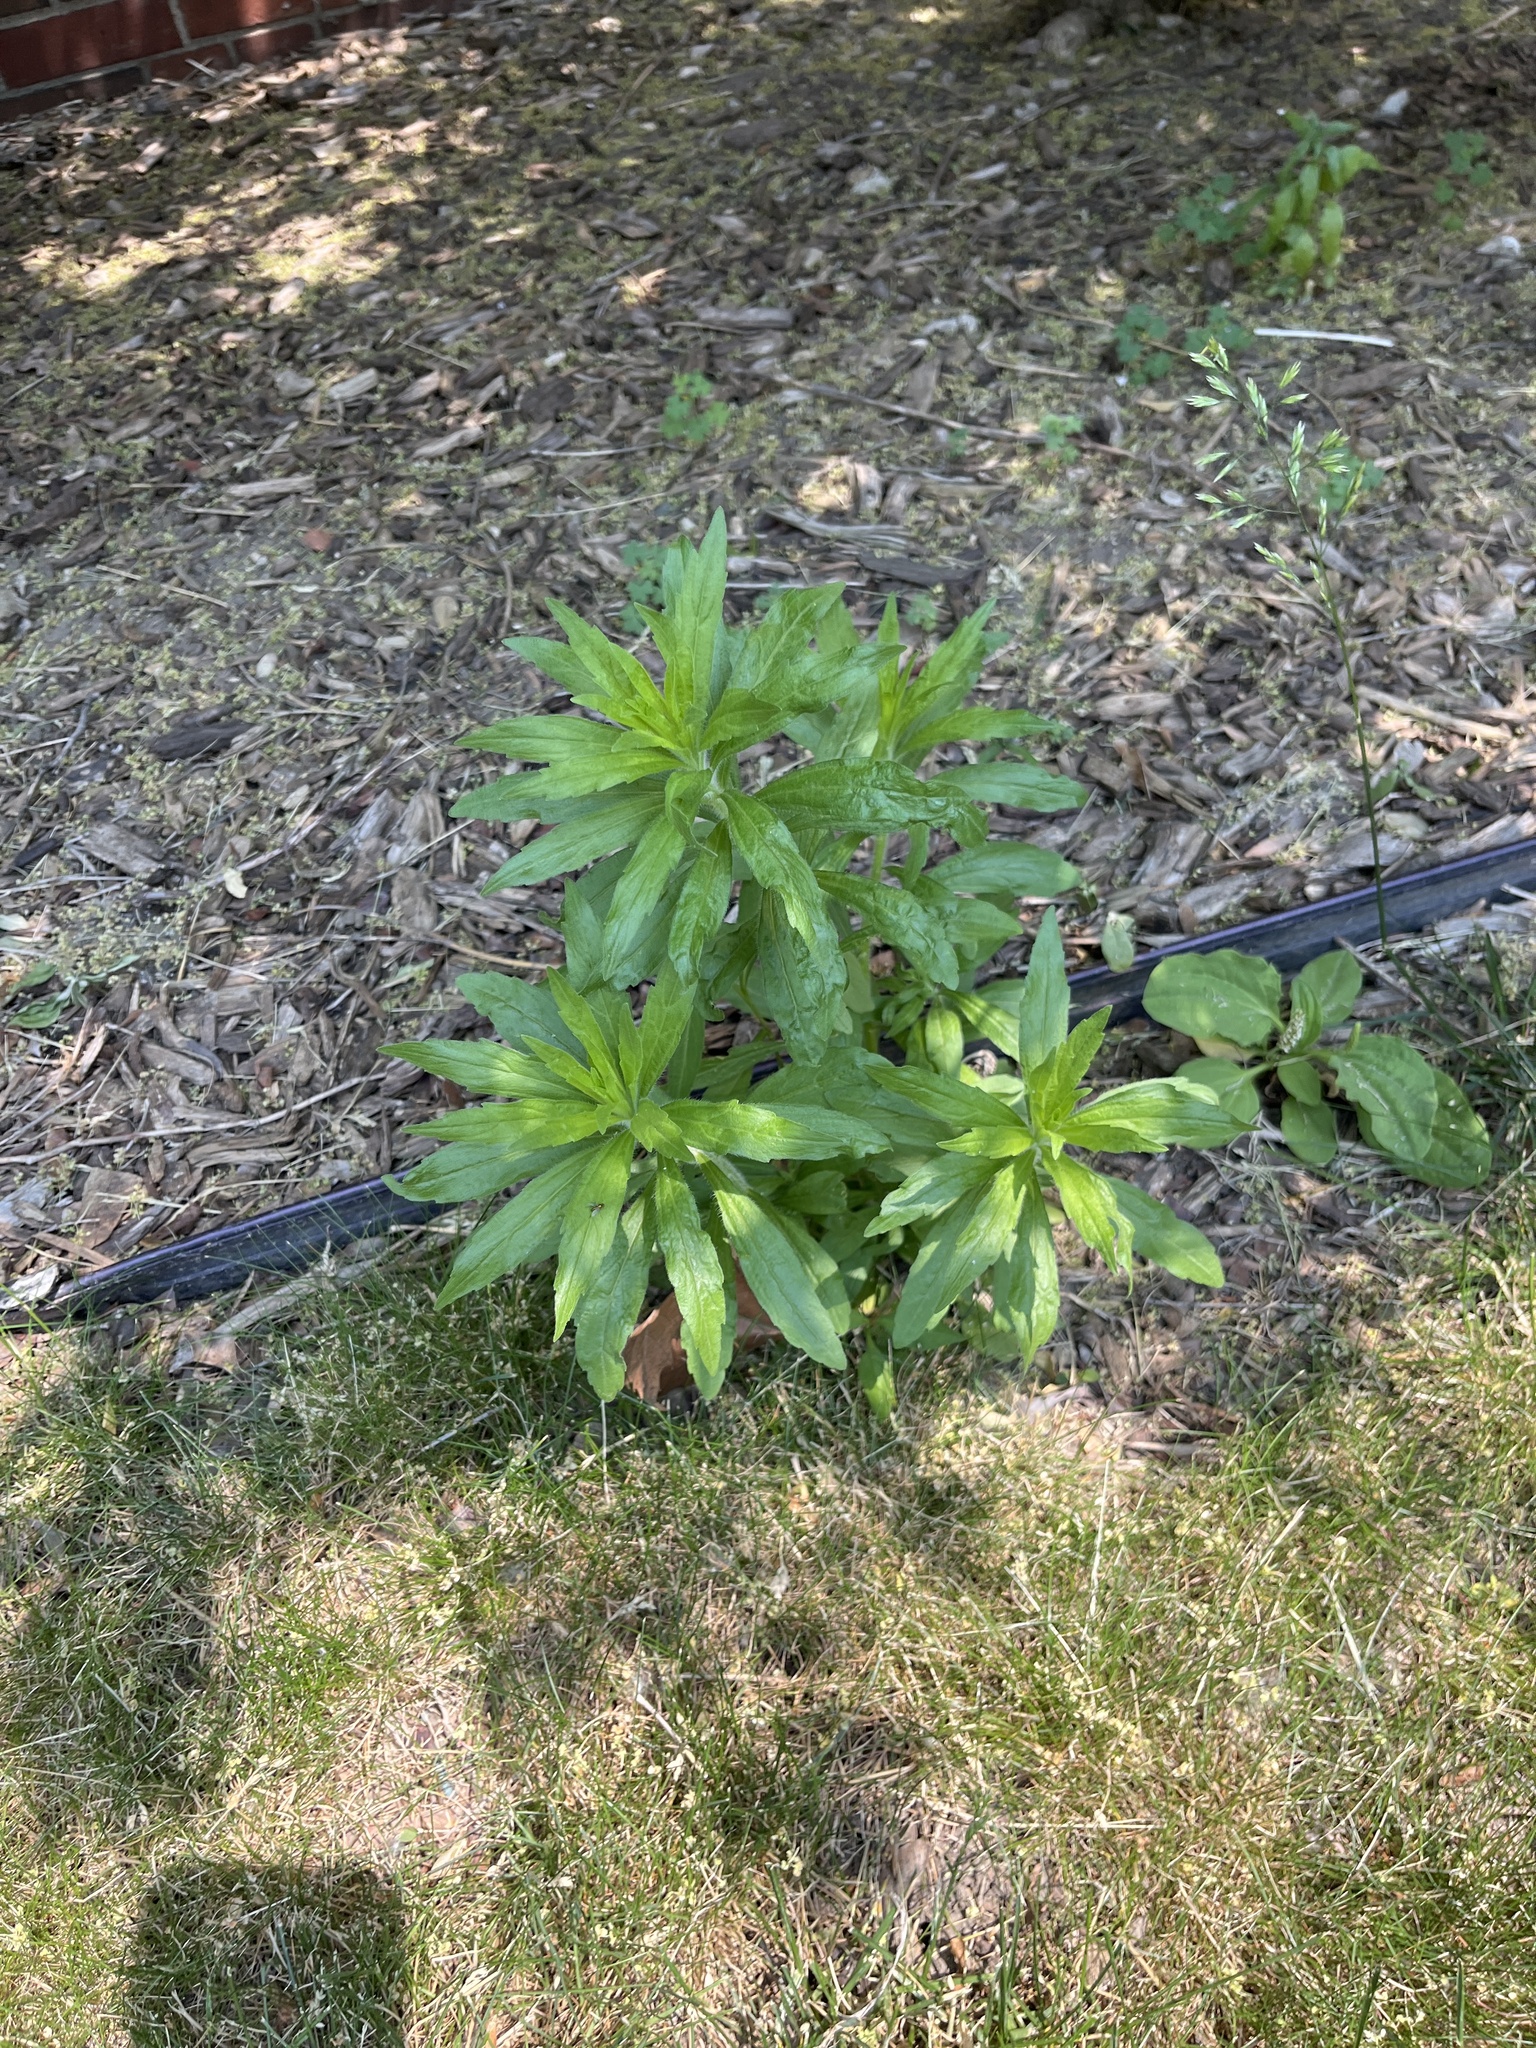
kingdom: Plantae
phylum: Tracheophyta
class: Magnoliopsida
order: Asterales
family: Asteraceae
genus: Erigeron
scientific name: Erigeron canadensis
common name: Canadian fleabane
